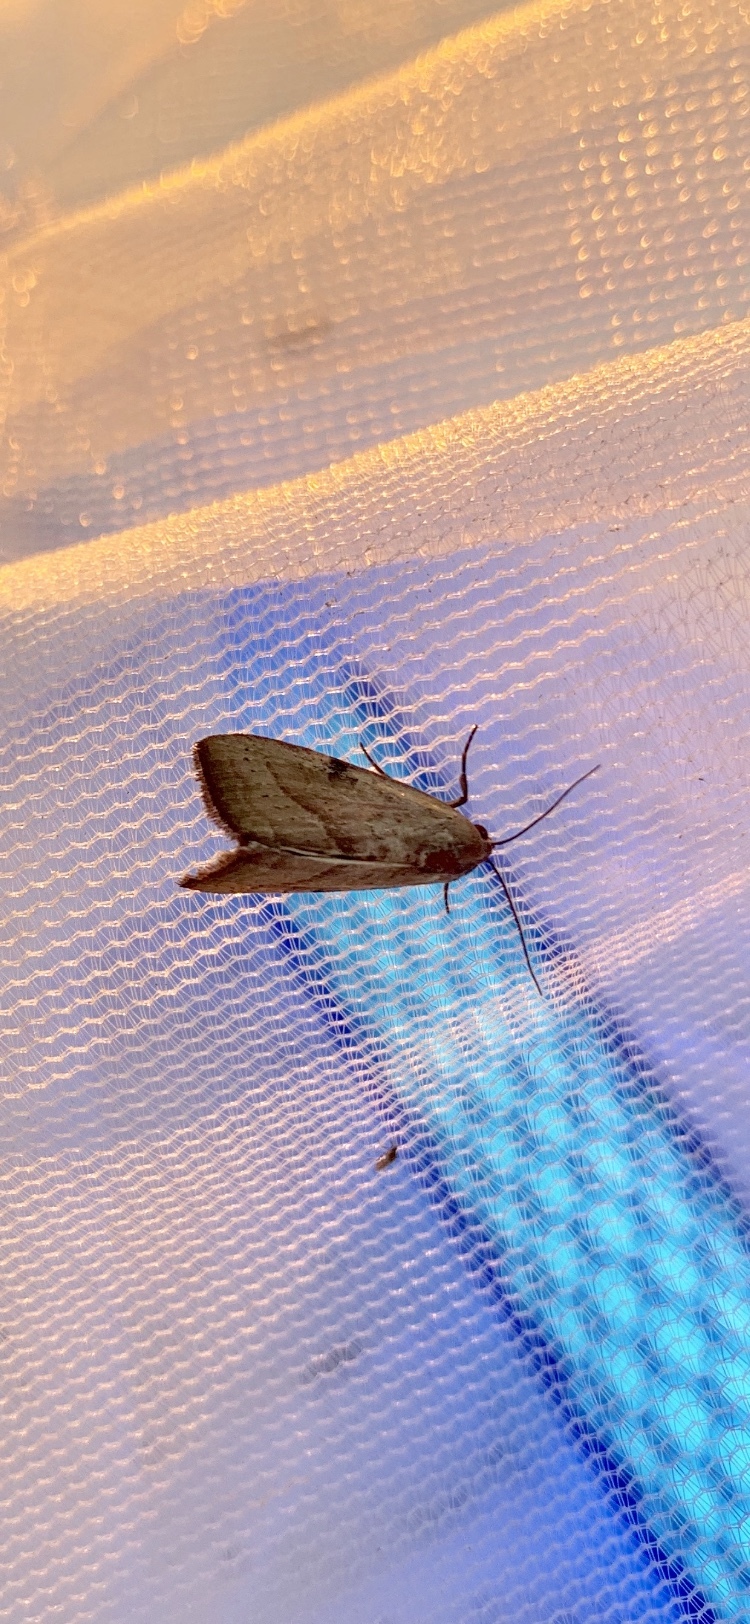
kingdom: Animalia
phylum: Arthropoda
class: Insecta
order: Lepidoptera
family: Noctuidae
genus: Galgula
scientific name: Galgula partita
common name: Wedgeling
